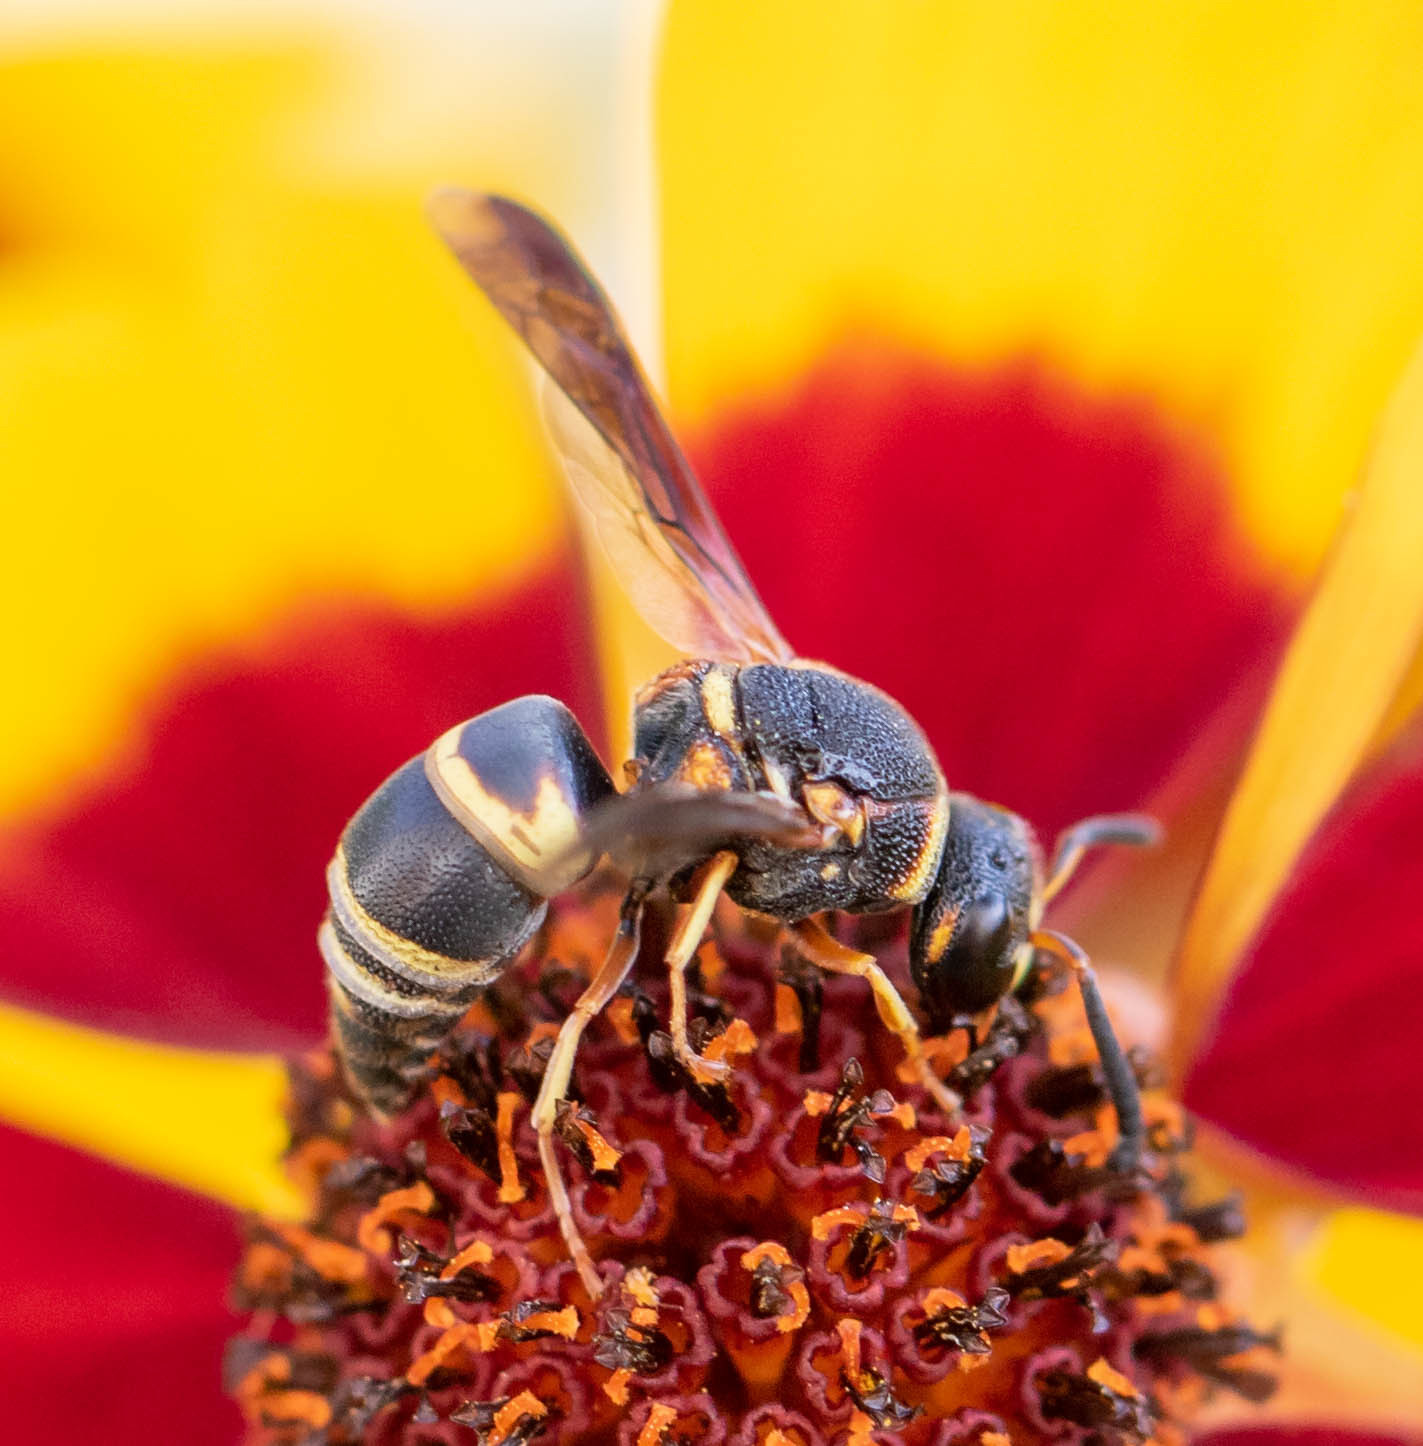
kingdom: Animalia
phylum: Arthropoda
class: Insecta
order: Hymenoptera
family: Eumenidae
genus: Euodynerus
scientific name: Euodynerus hidalgo
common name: Wasp
